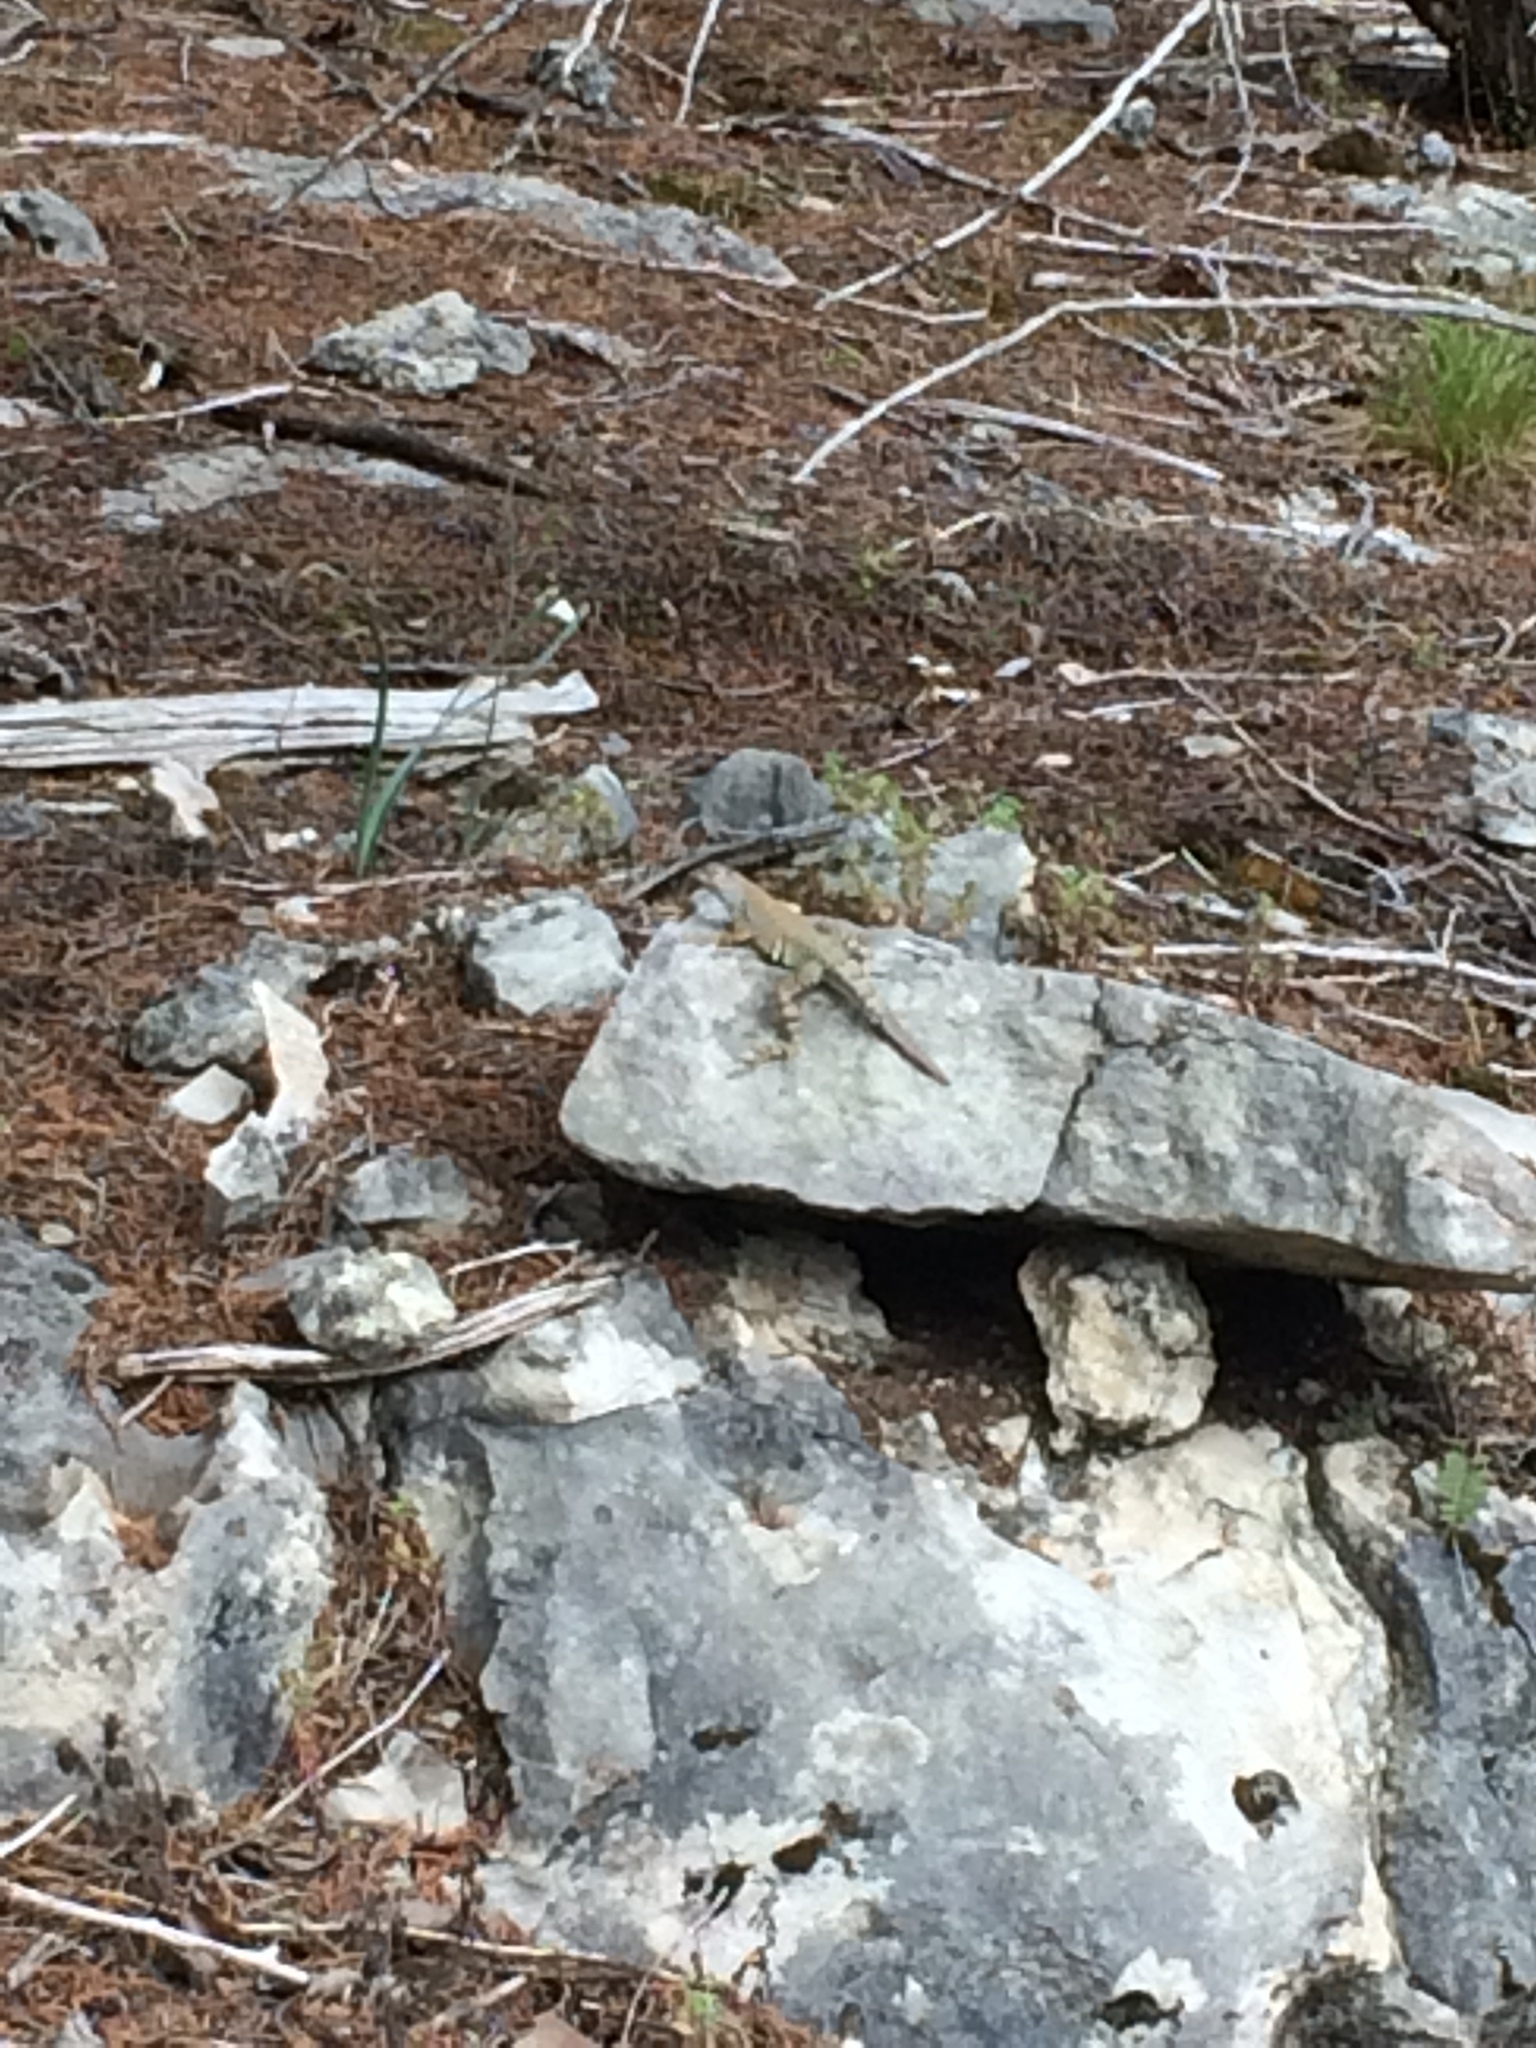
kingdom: Animalia
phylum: Chordata
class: Squamata
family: Phrynosomatidae
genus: Cophosaurus
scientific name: Cophosaurus texanus
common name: Greater earless lizard
